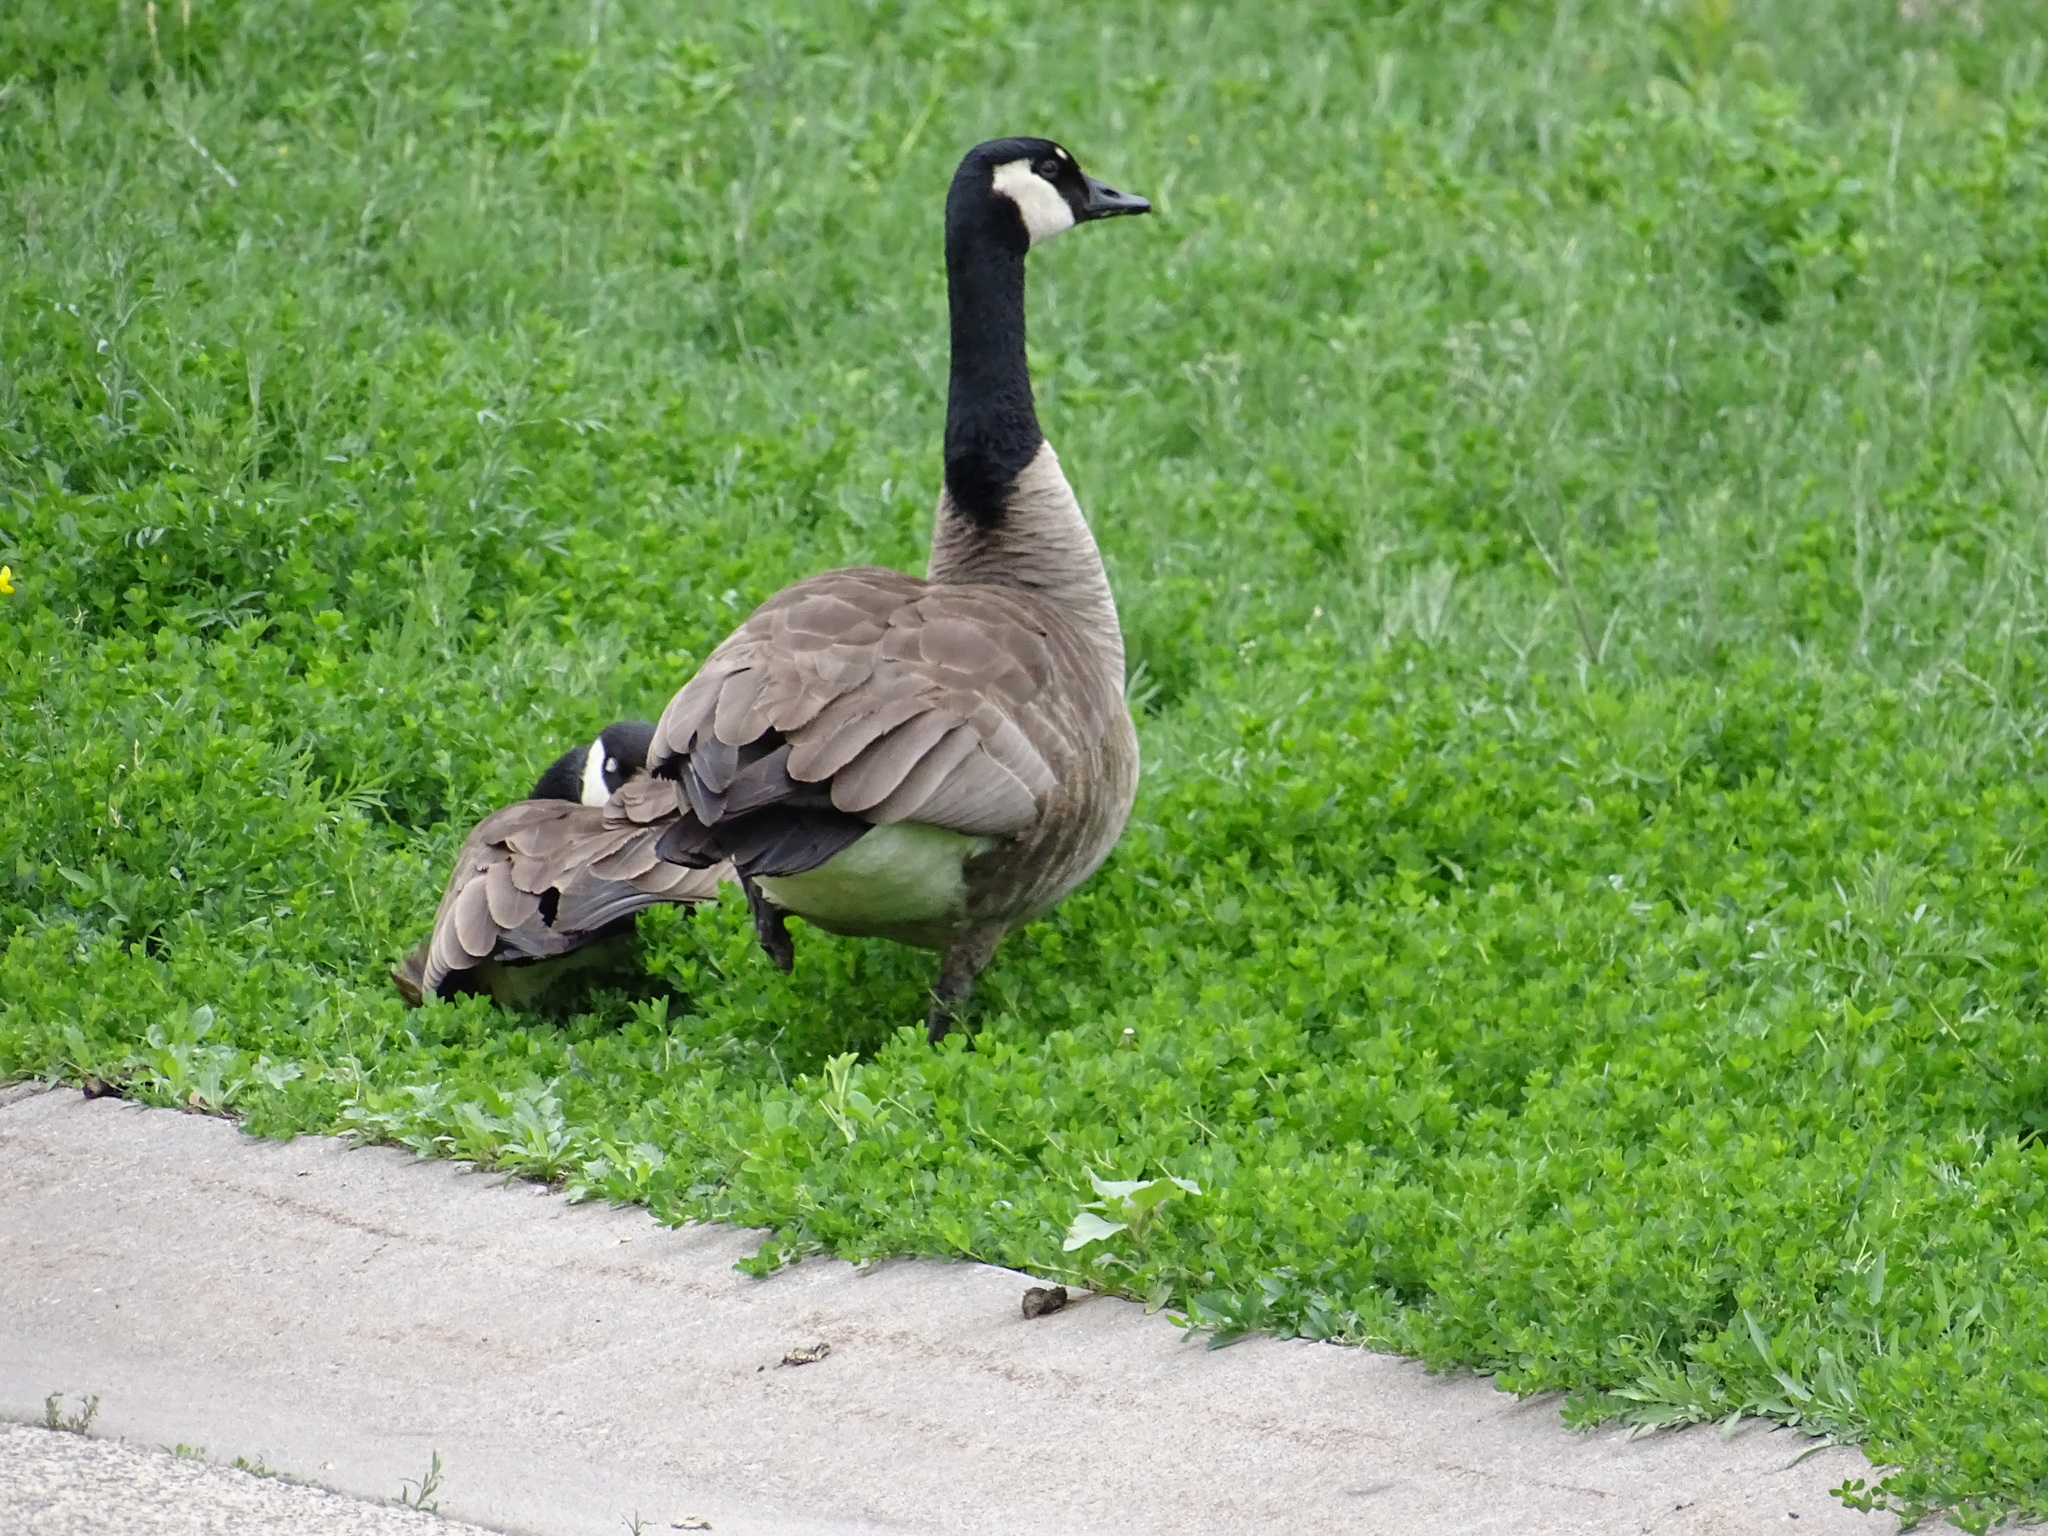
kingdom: Animalia
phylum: Chordata
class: Aves
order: Anseriformes
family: Anatidae
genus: Branta
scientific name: Branta canadensis
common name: Canada goose
